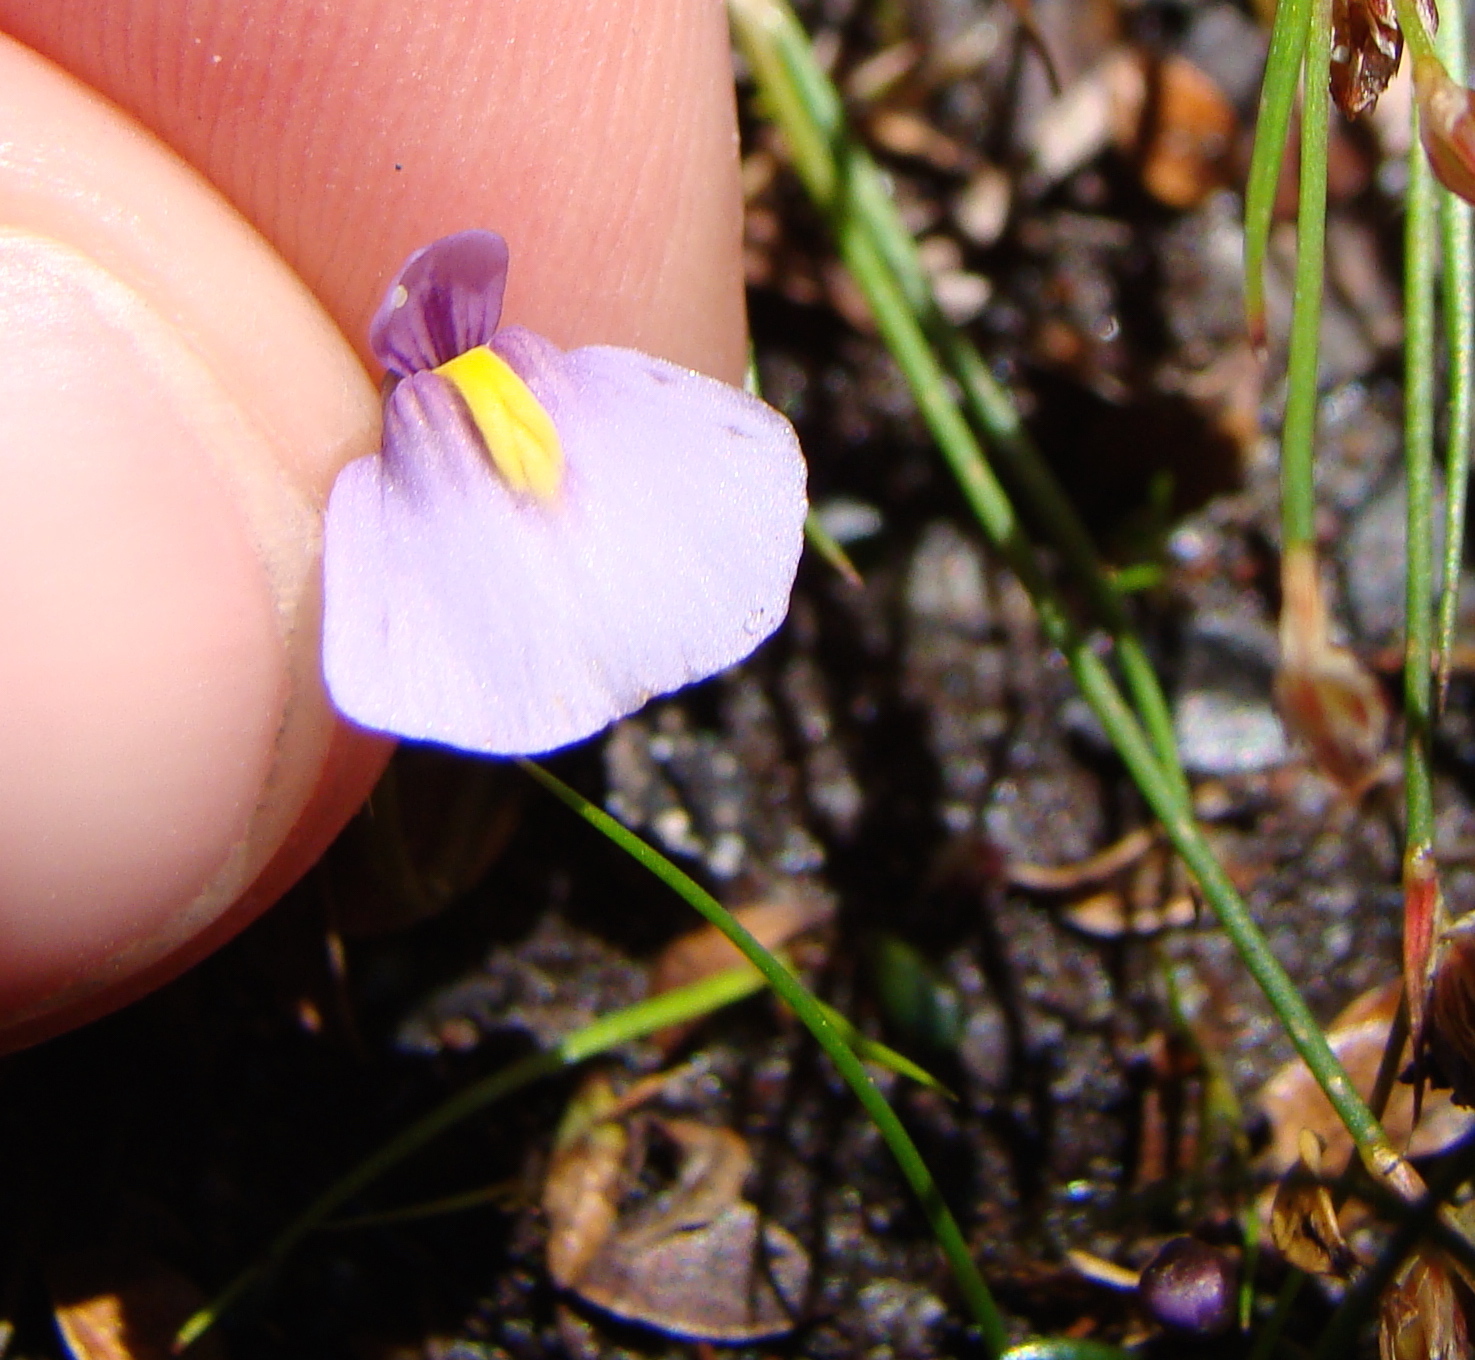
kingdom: Plantae
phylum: Tracheophyta
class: Magnoliopsida
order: Lamiales
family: Lentibulariaceae
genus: Utricularia
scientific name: Utricularia dichotoma
